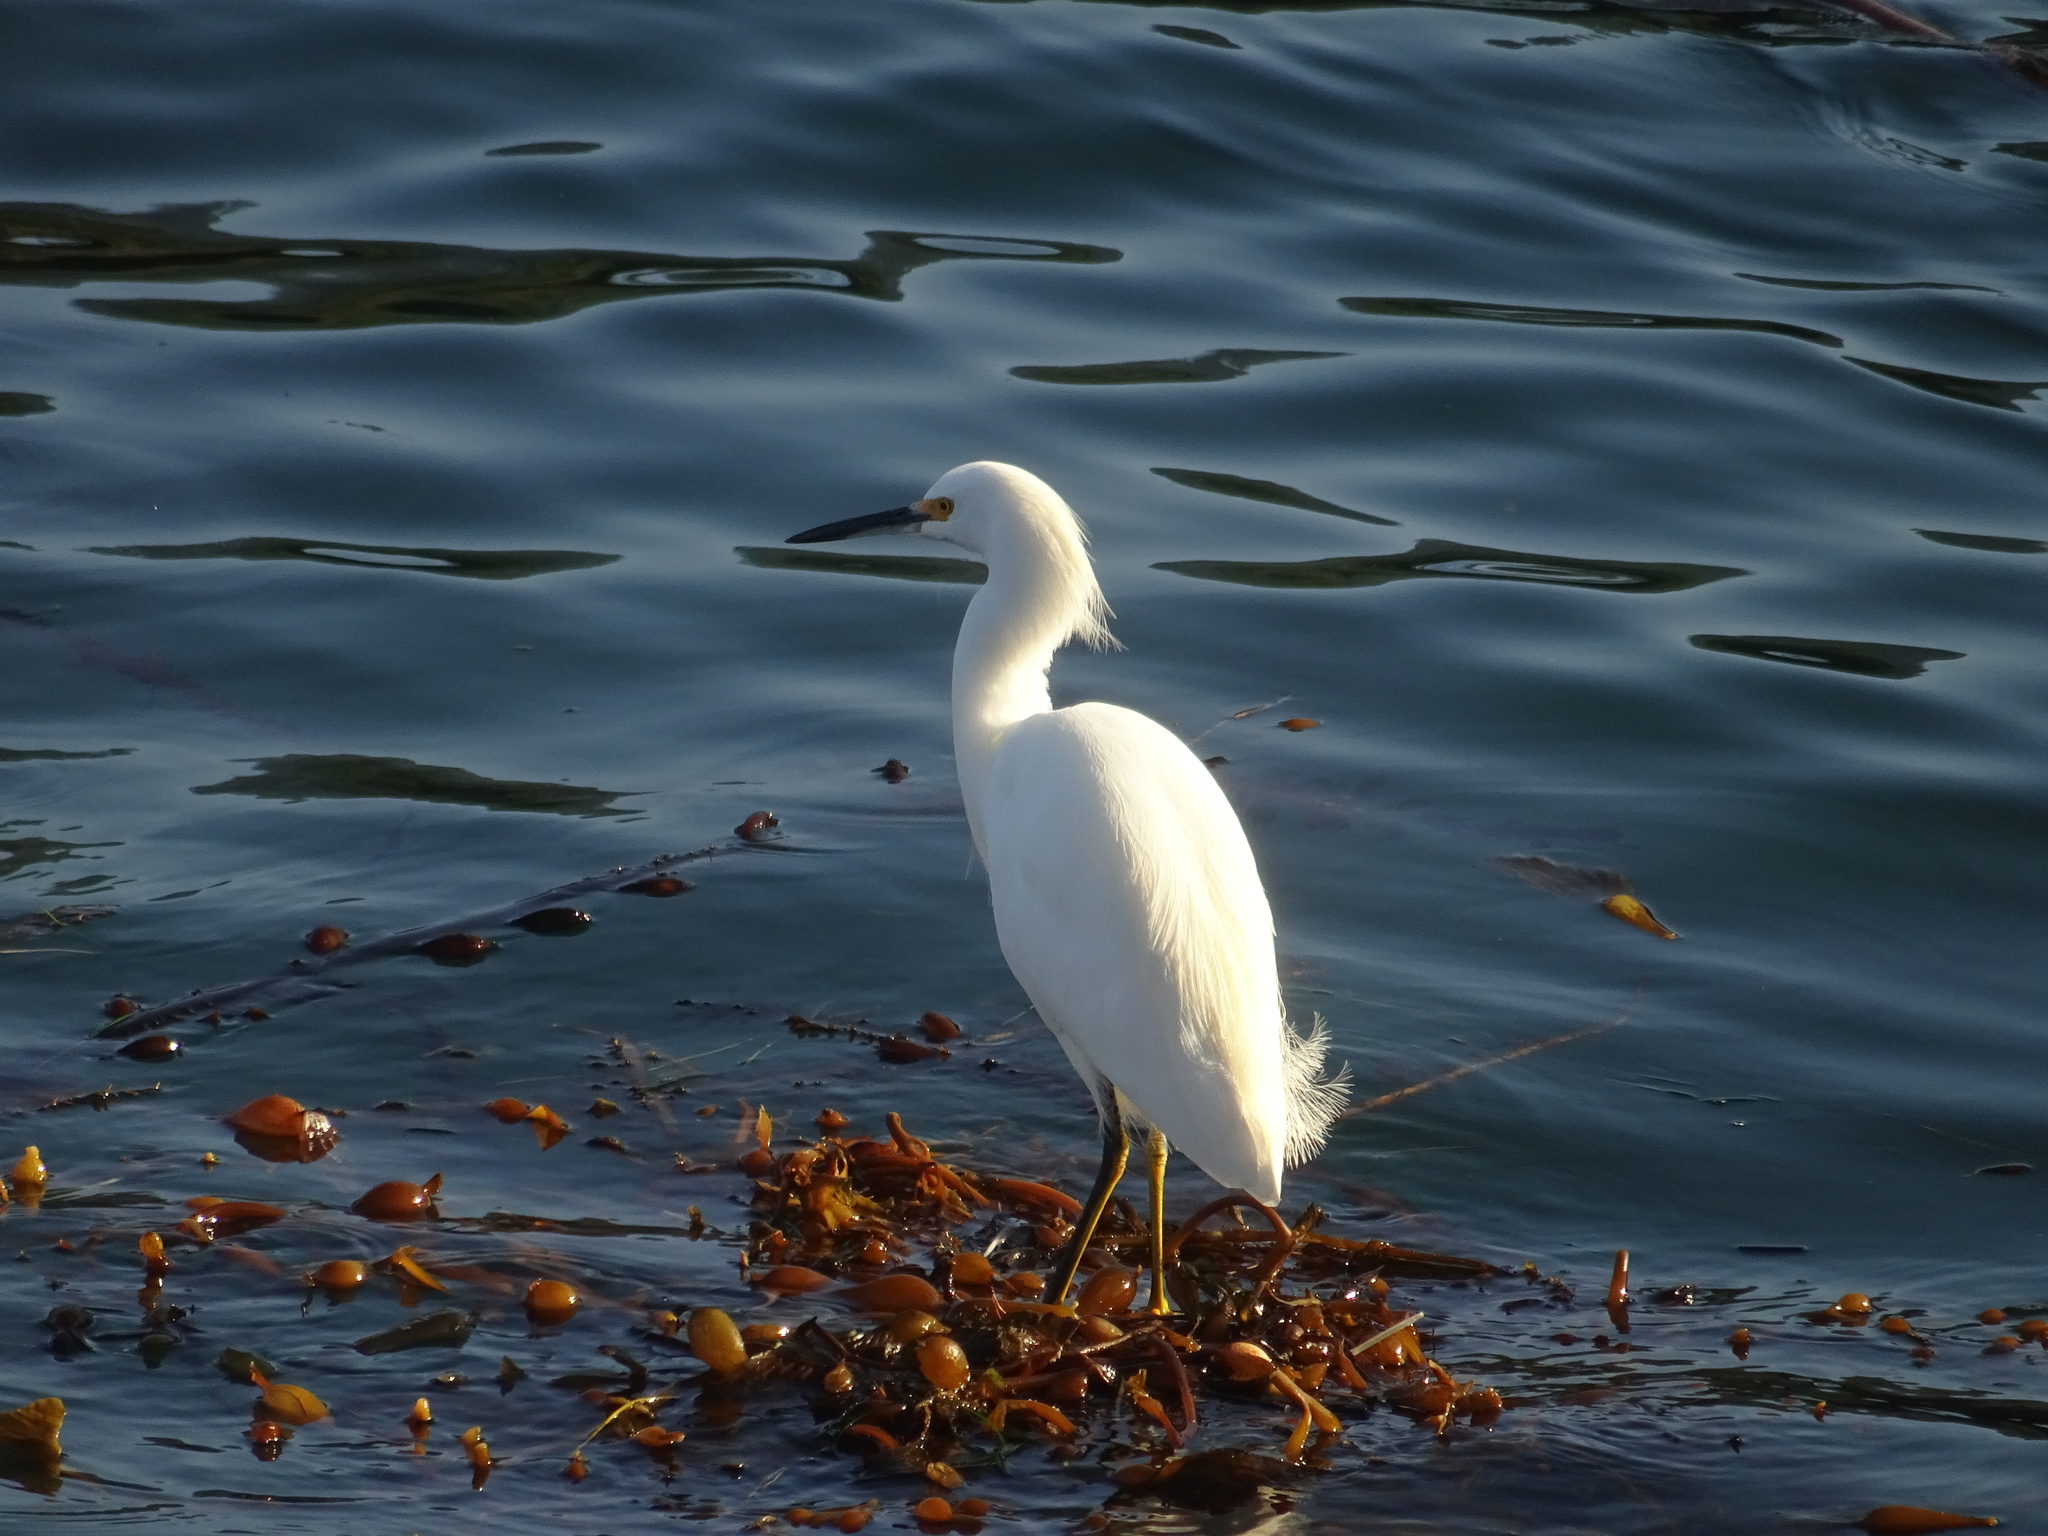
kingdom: Animalia
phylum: Chordata
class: Aves
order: Pelecaniformes
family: Ardeidae
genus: Egretta
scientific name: Egretta thula
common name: Snowy egret
